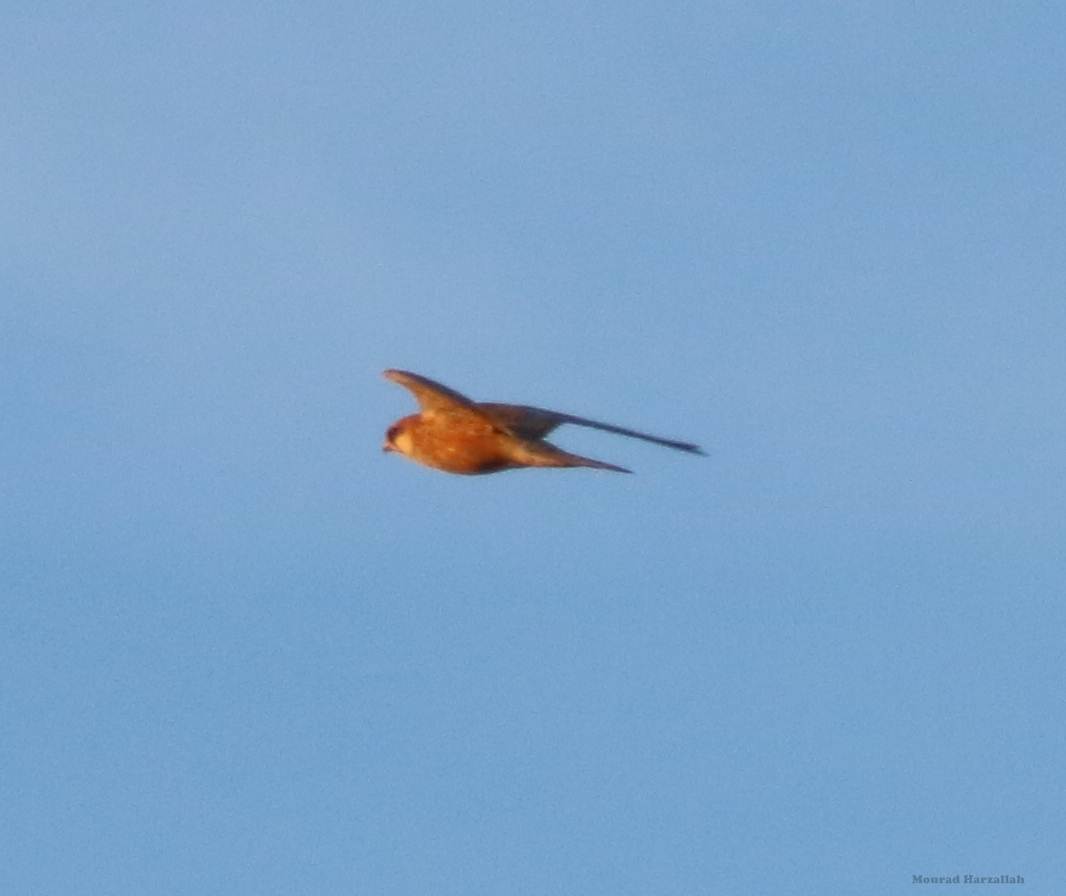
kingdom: Animalia
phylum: Chordata
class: Aves
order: Falconiformes
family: Falconidae
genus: Falco
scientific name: Falco vespertinus
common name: Red-footed falcon
